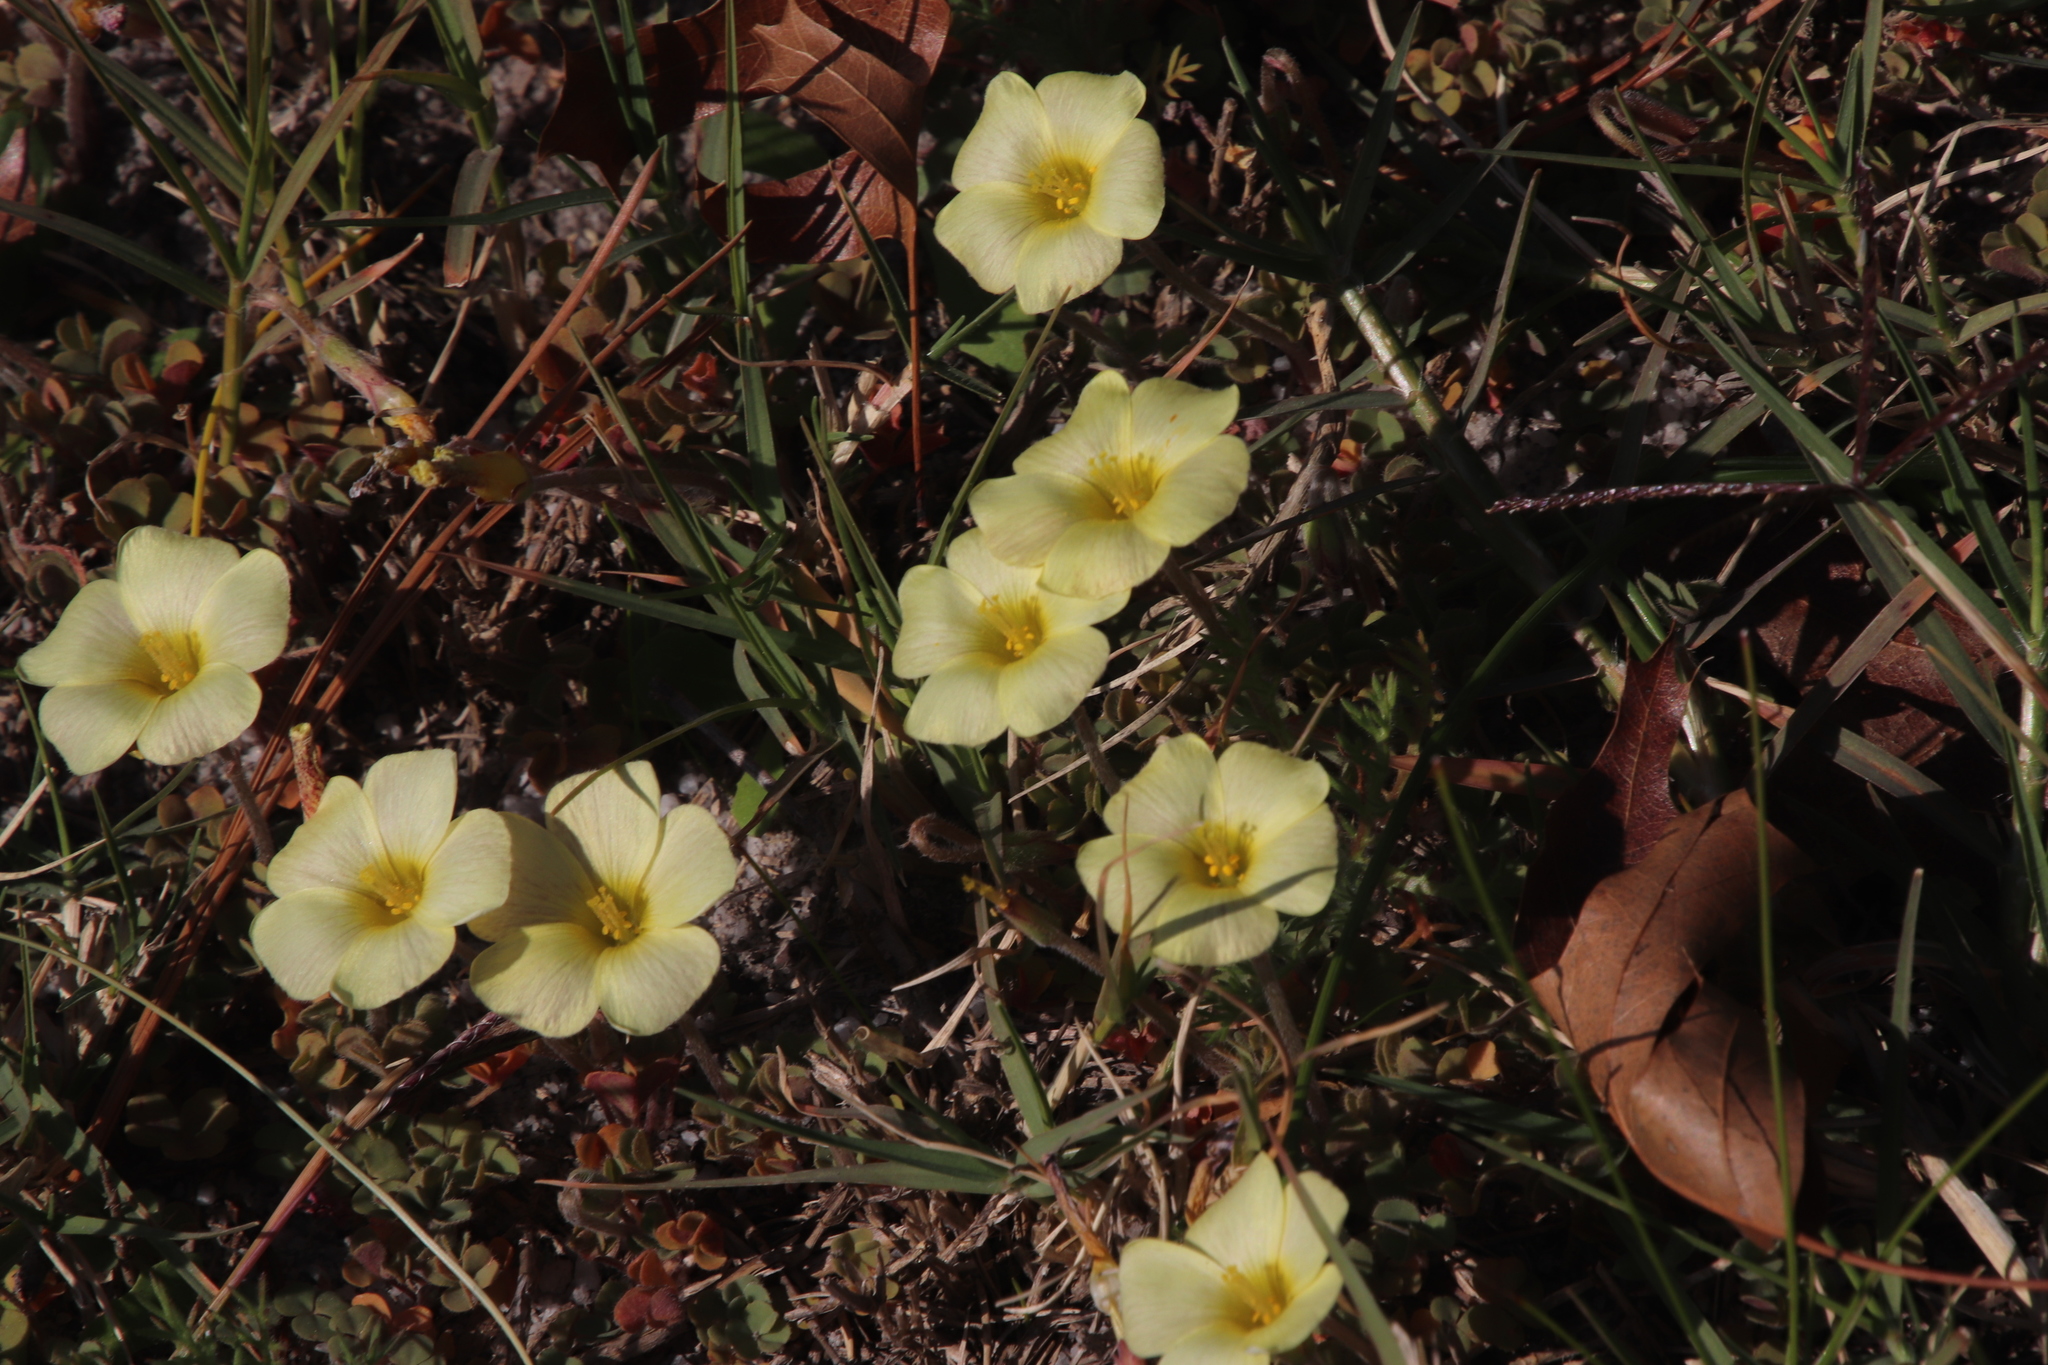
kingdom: Plantae
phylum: Tracheophyta
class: Magnoliopsida
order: Oxalidales
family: Oxalidaceae
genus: Oxalis
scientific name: Oxalis obtusa
